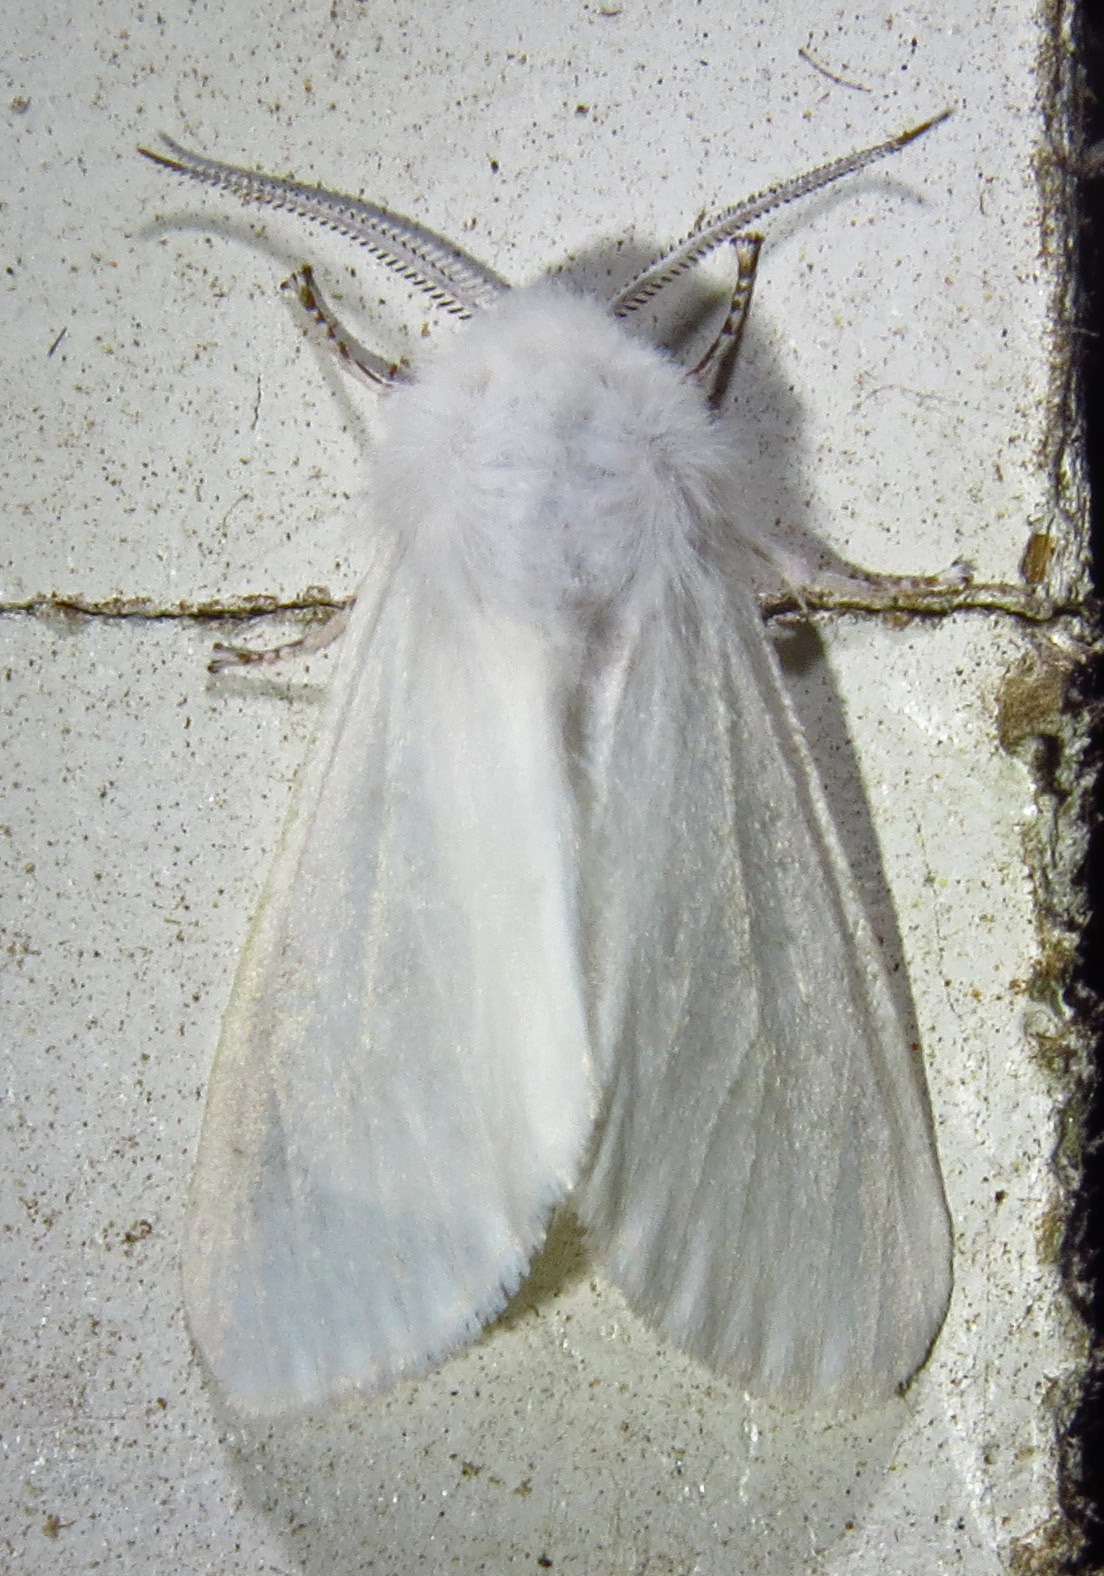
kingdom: Animalia
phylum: Arthropoda
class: Insecta
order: Lepidoptera
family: Erebidae
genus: Hyphantria
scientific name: Hyphantria cunea
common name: American white moth
